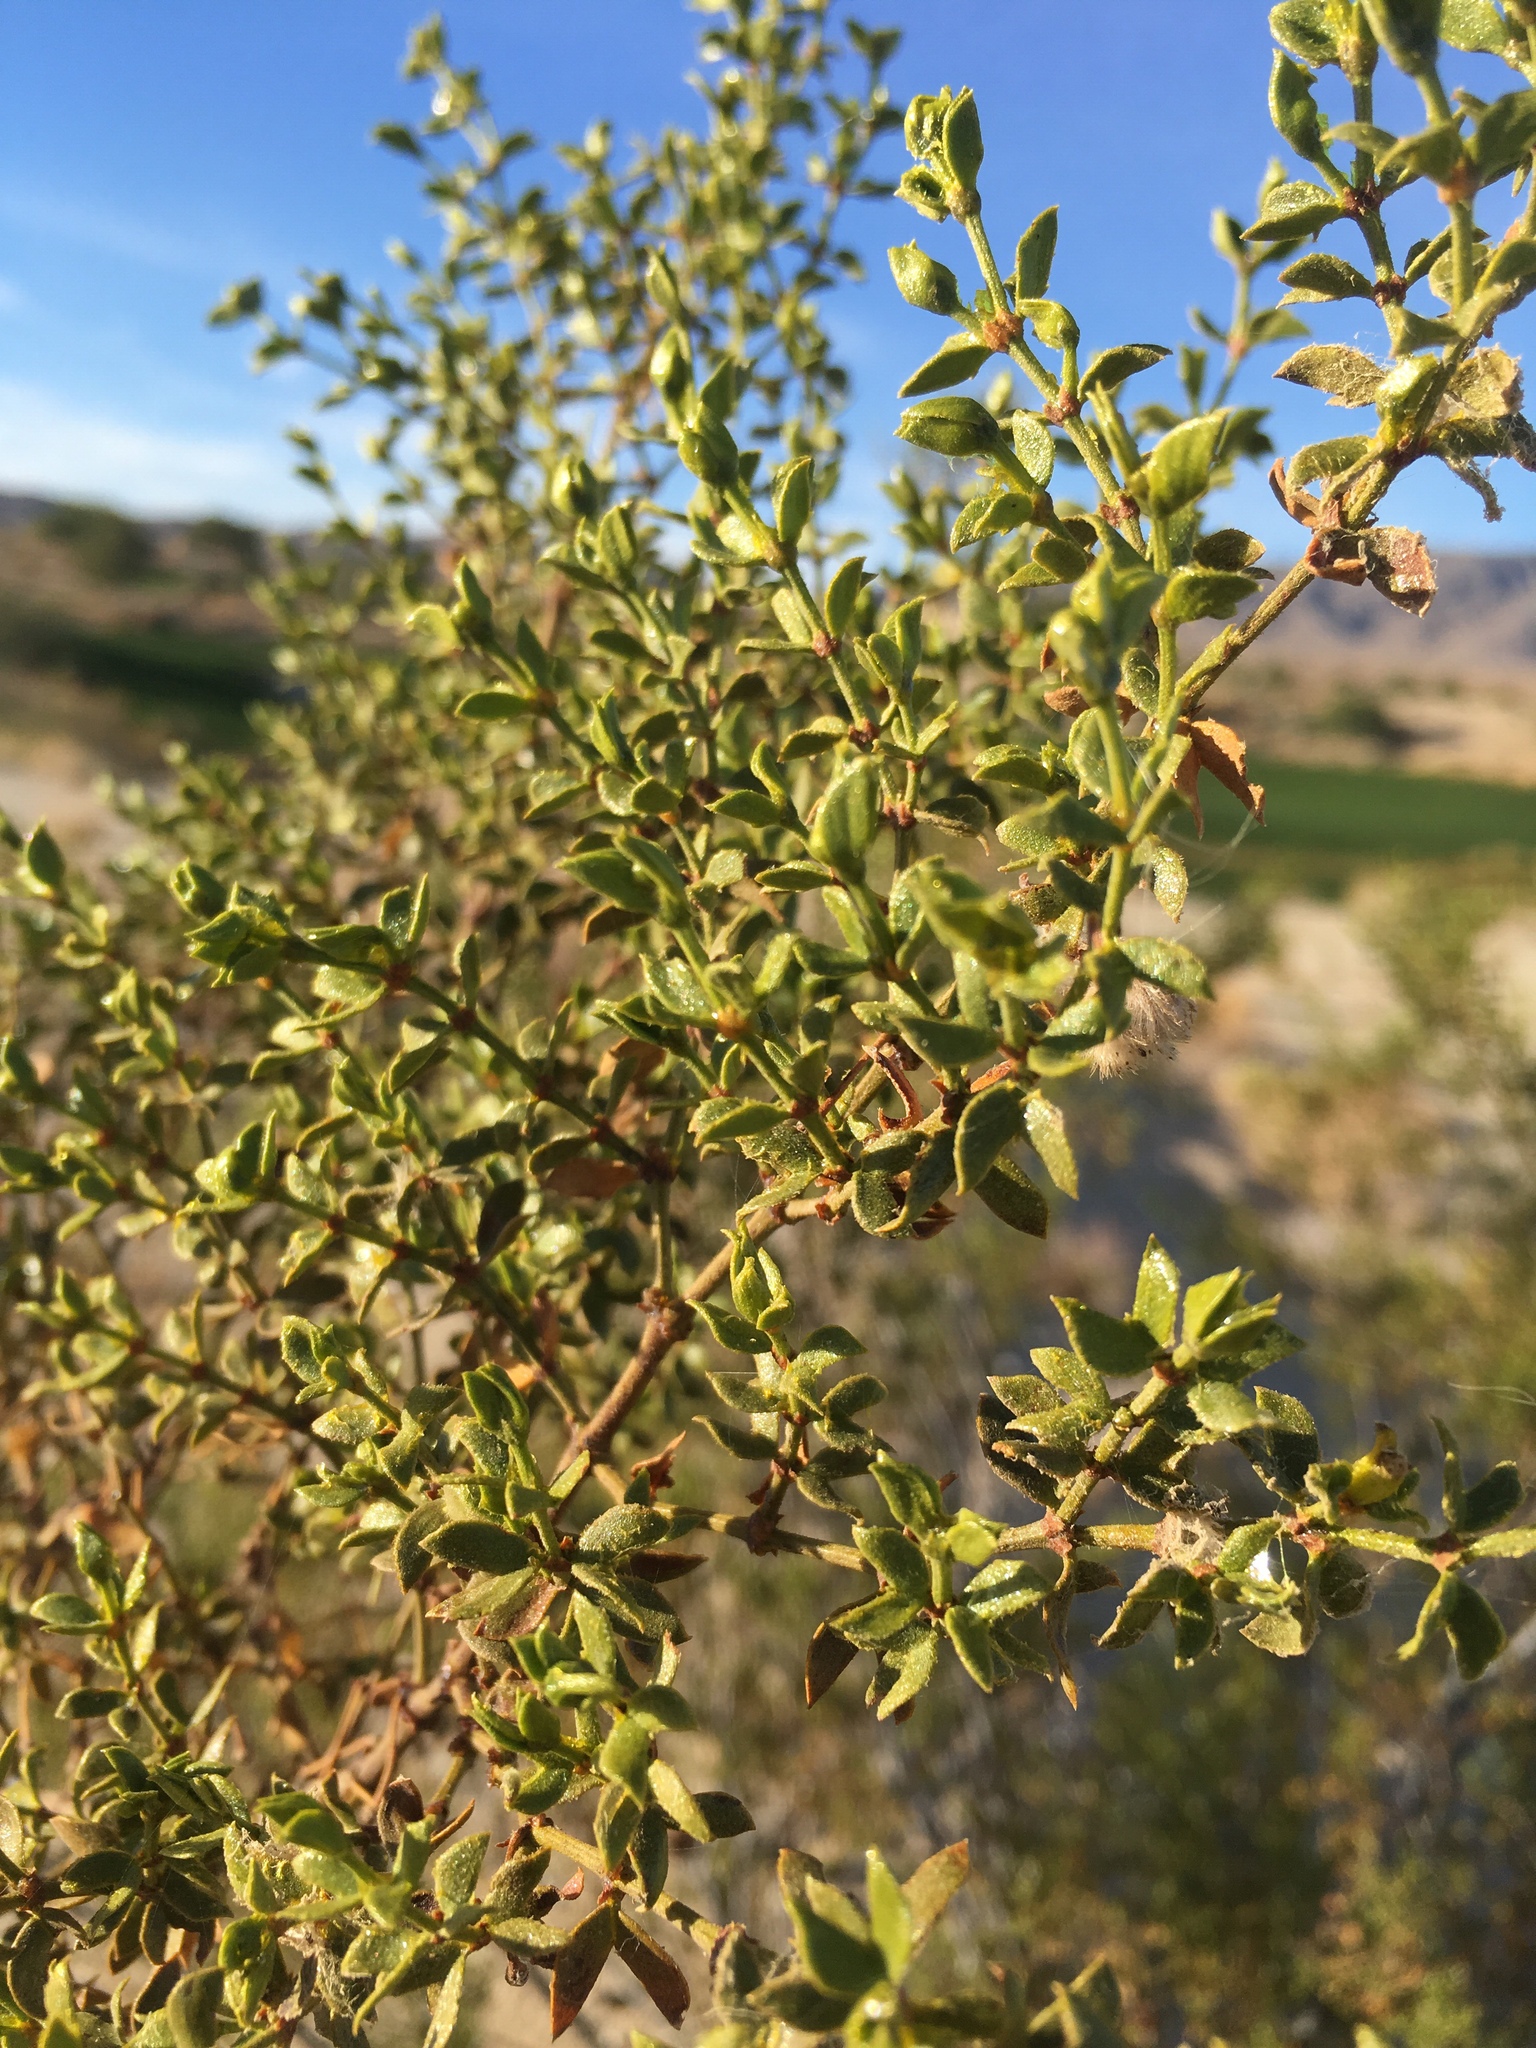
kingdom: Animalia
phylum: Arthropoda
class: Insecta
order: Diptera
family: Cecidomyiidae
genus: Asphondylia
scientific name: Asphondylia auripila
